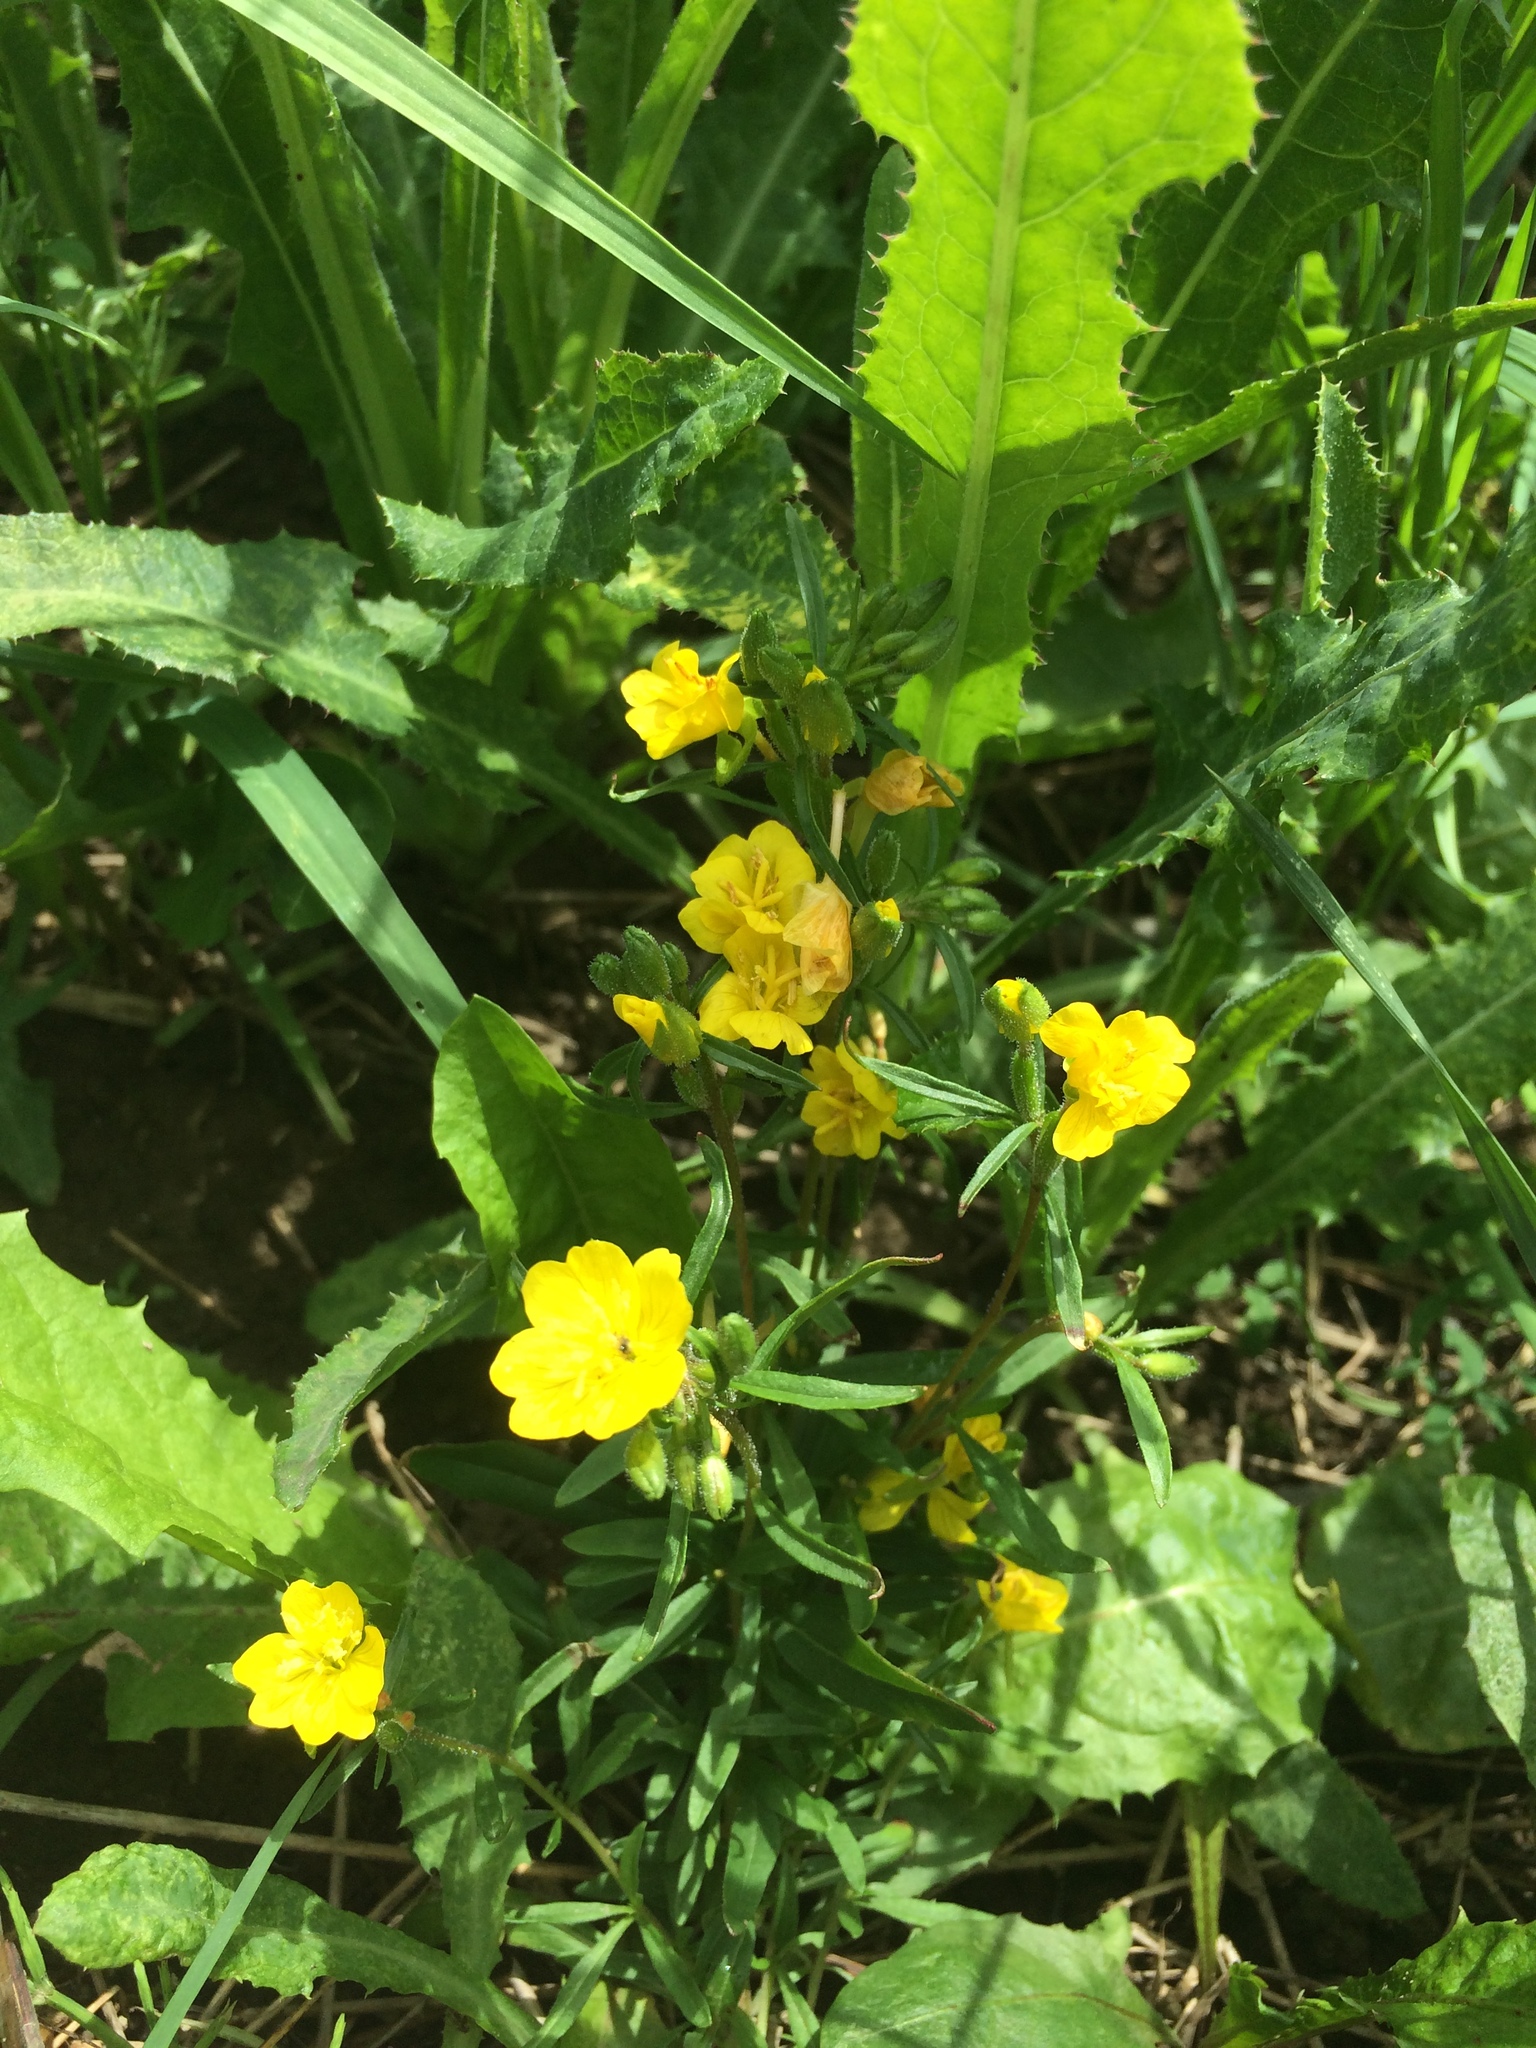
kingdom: Plantae
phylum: Tracheophyta
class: Magnoliopsida
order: Myrtales
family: Onagraceae
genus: Oenothera
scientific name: Oenothera perennis
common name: Small sundrops
